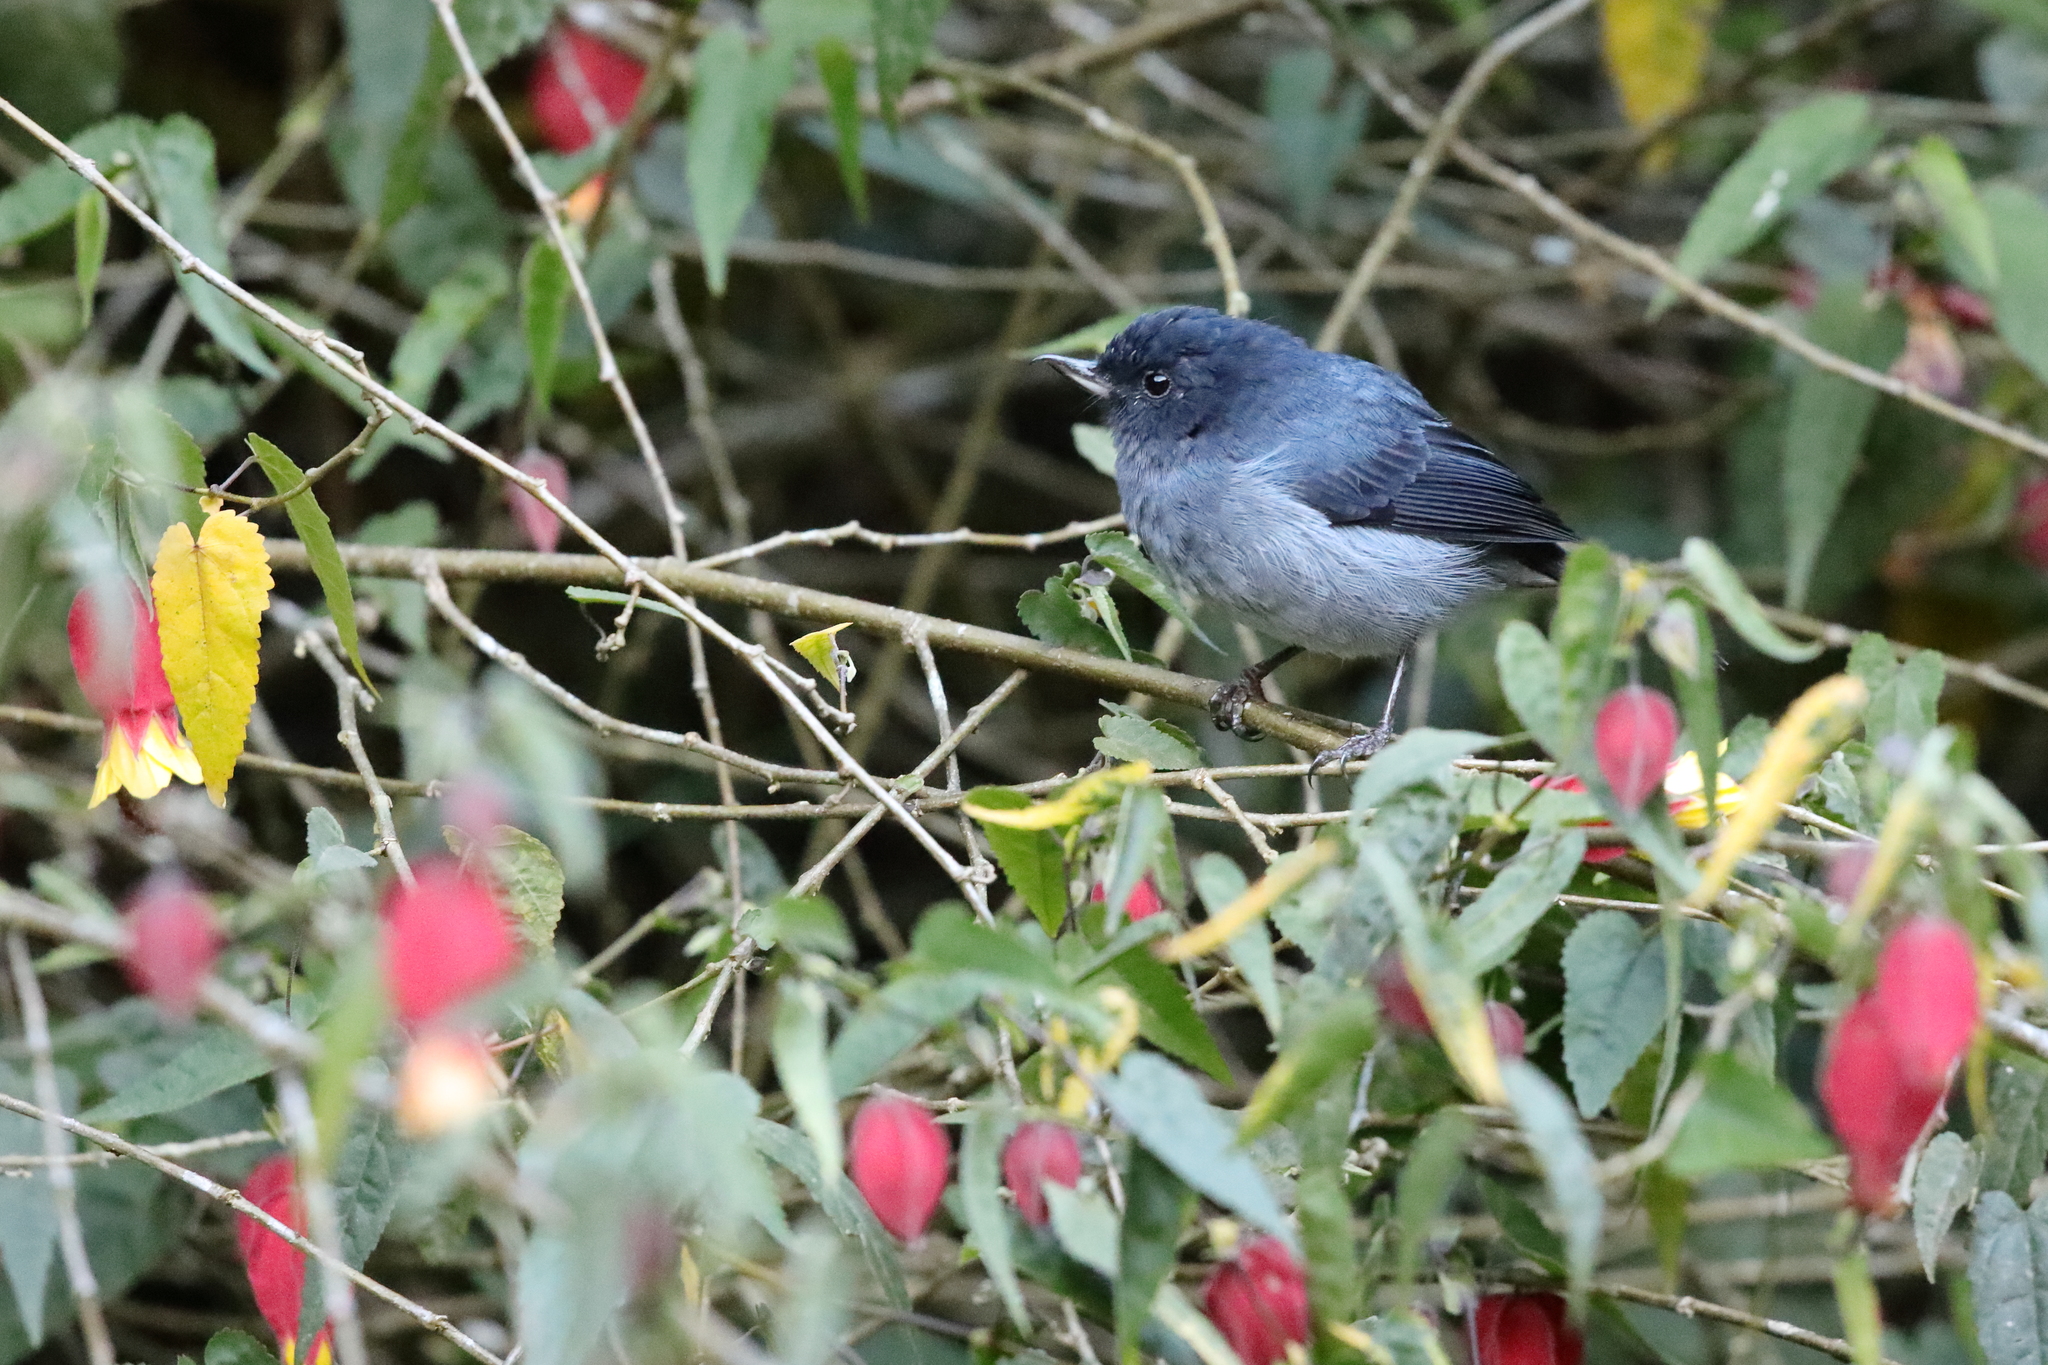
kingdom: Animalia
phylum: Chordata
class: Aves
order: Passeriformes
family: Thraupidae
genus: Diglossa
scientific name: Diglossa plumbea
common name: Slaty flowerpiercer
